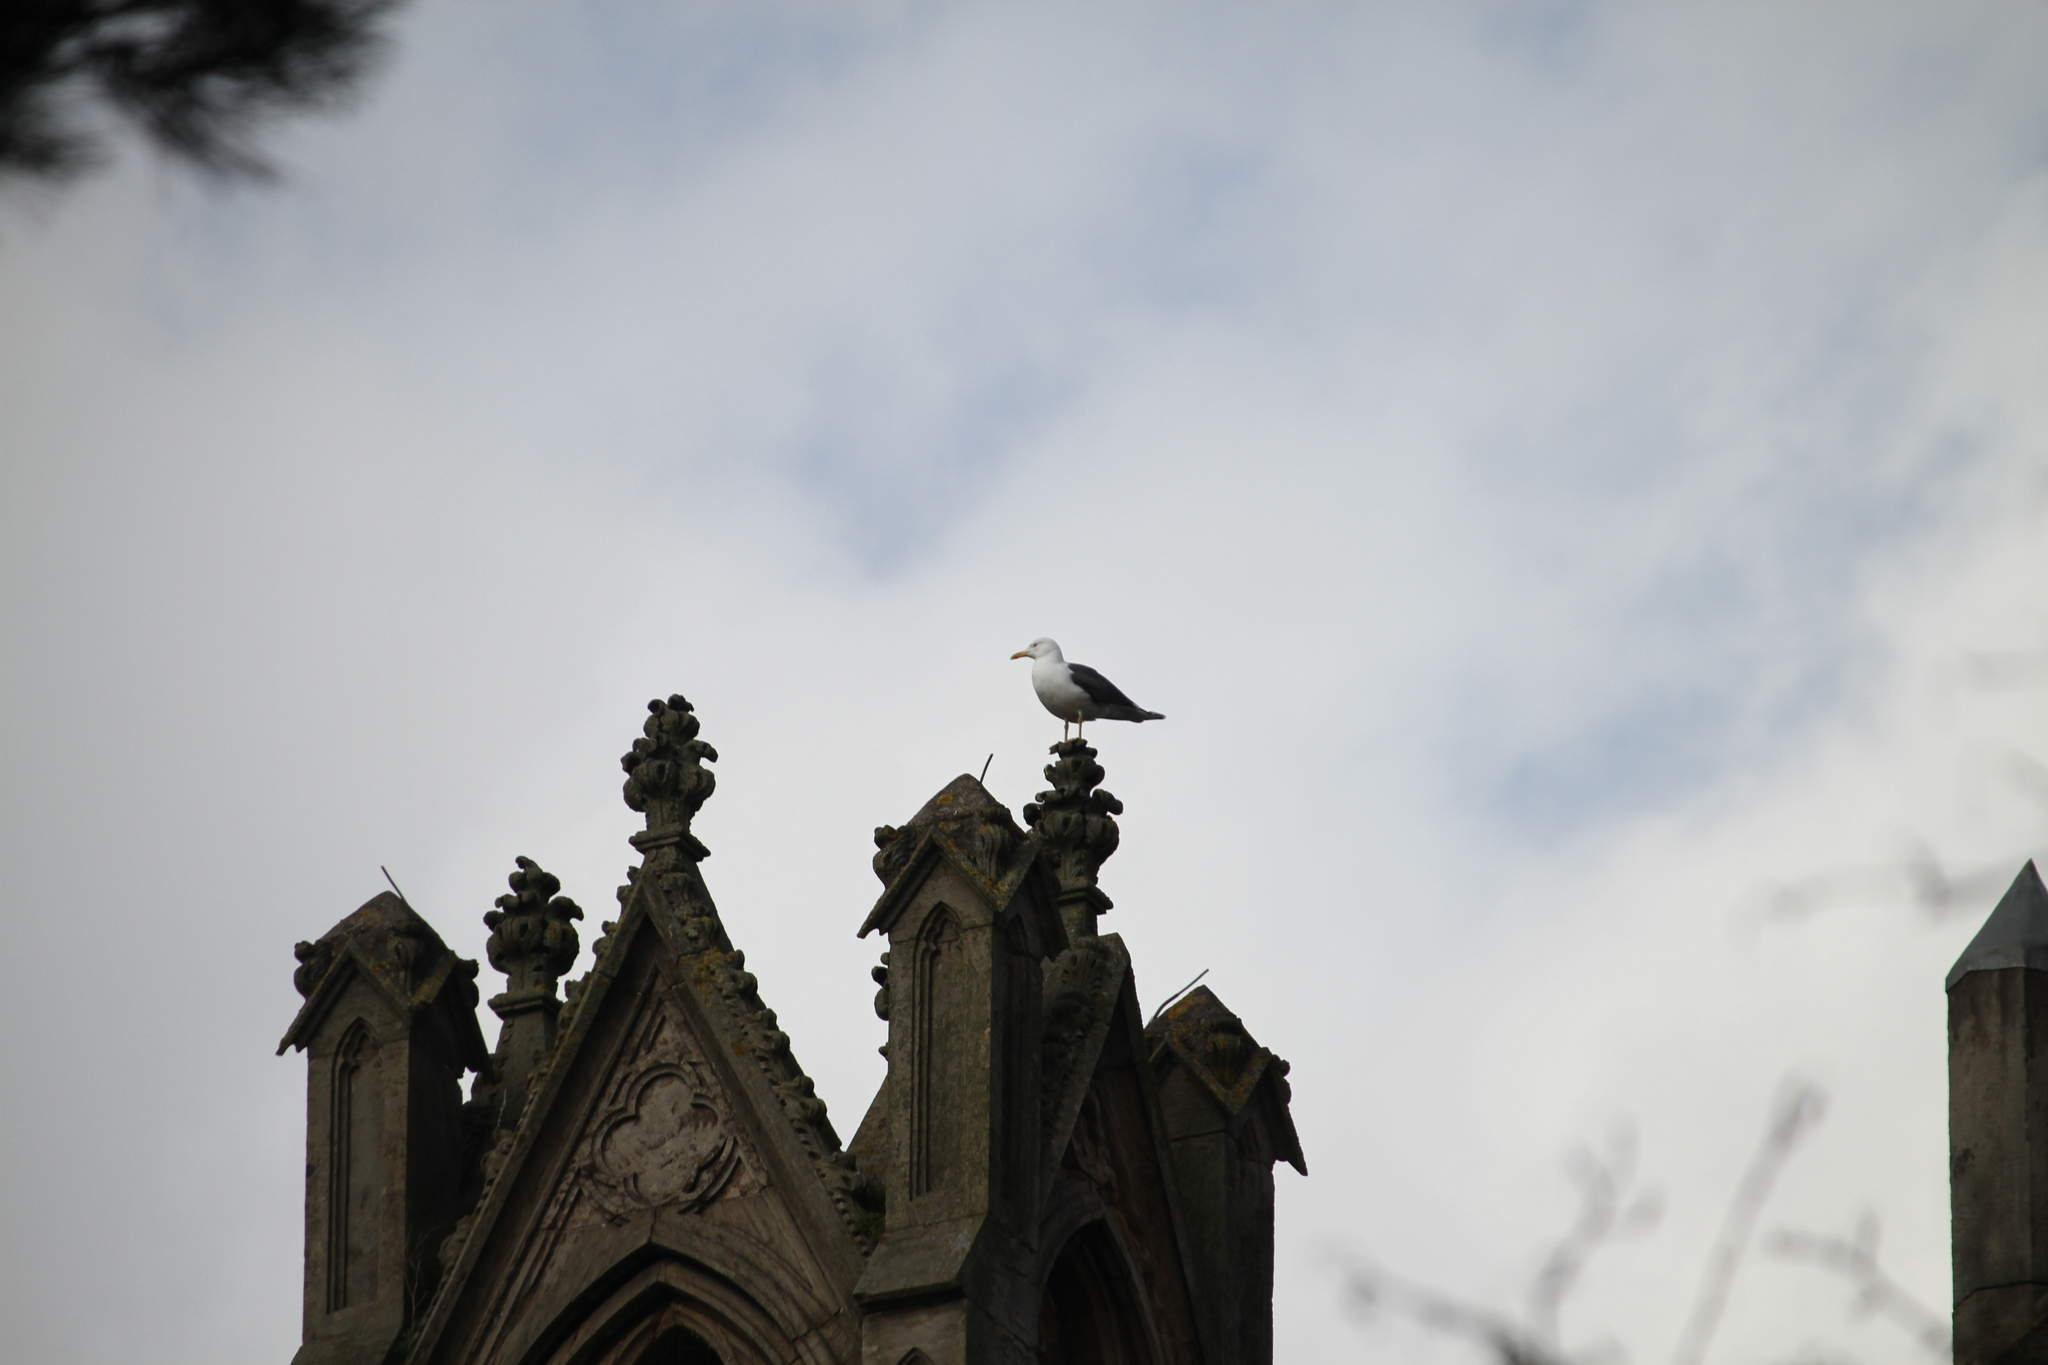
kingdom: Animalia
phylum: Chordata
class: Aves
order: Charadriiformes
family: Laridae
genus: Larus
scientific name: Larus fuscus
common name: Lesser black-backed gull
